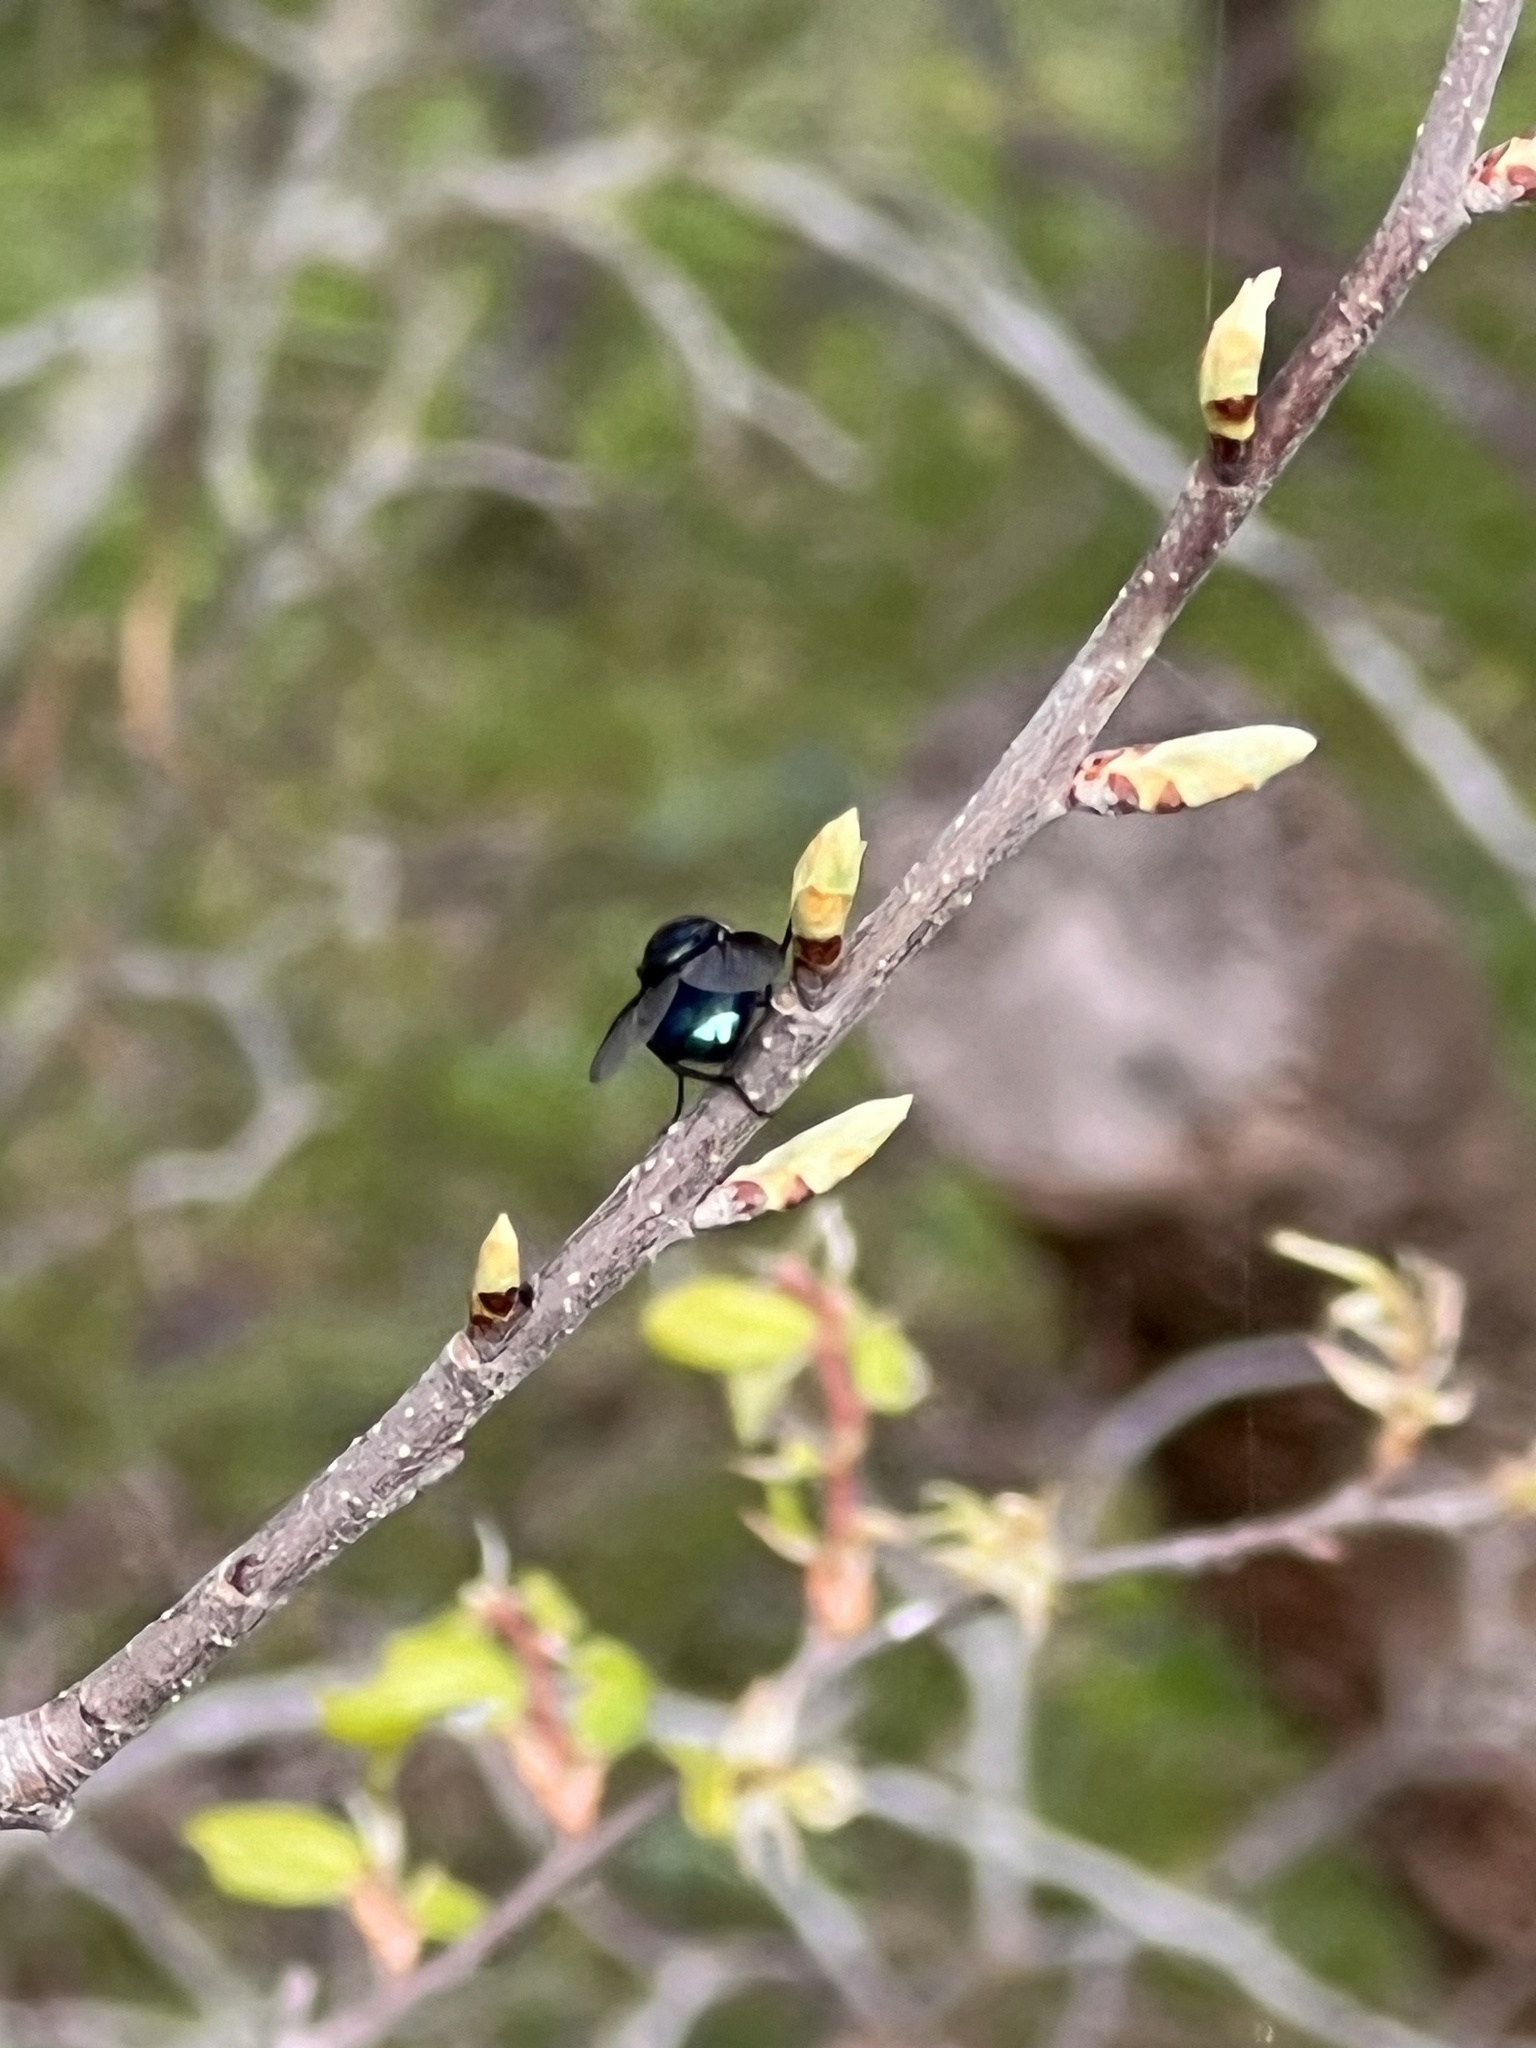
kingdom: Animalia
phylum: Arthropoda
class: Insecta
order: Diptera
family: Calliphoridae
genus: Chrysomya
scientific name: Chrysomya megacephala
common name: Blow fly
